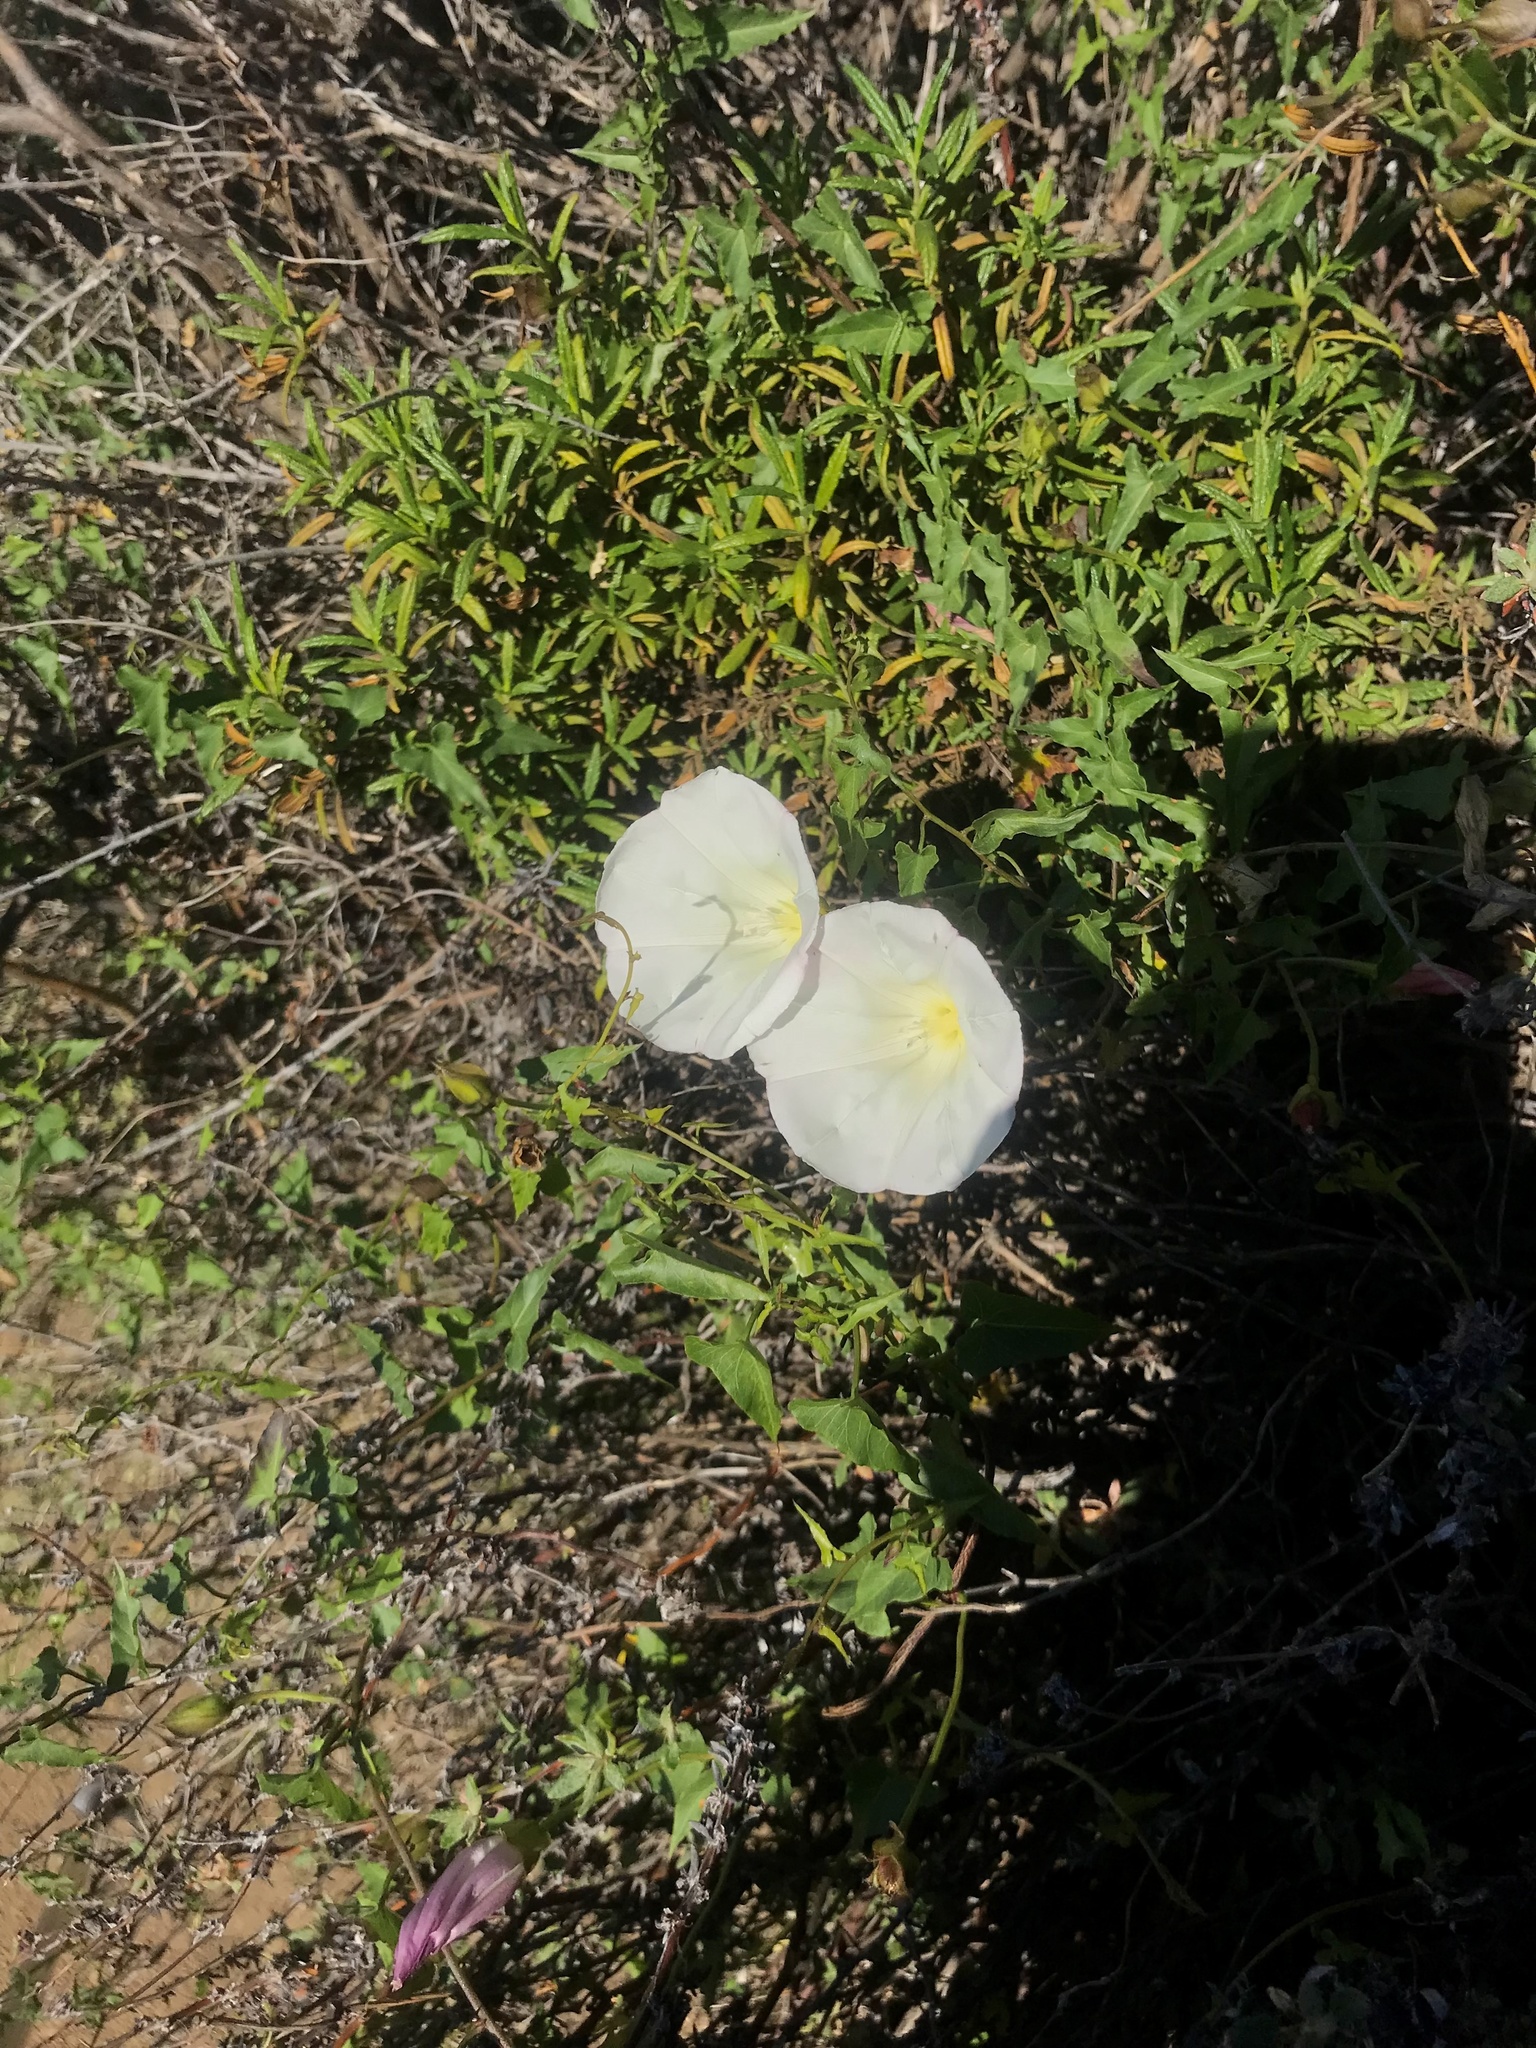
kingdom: Plantae
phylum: Tracheophyta
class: Magnoliopsida
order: Solanales
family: Convolvulaceae
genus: Calystegia
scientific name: Calystegia macrostegia
